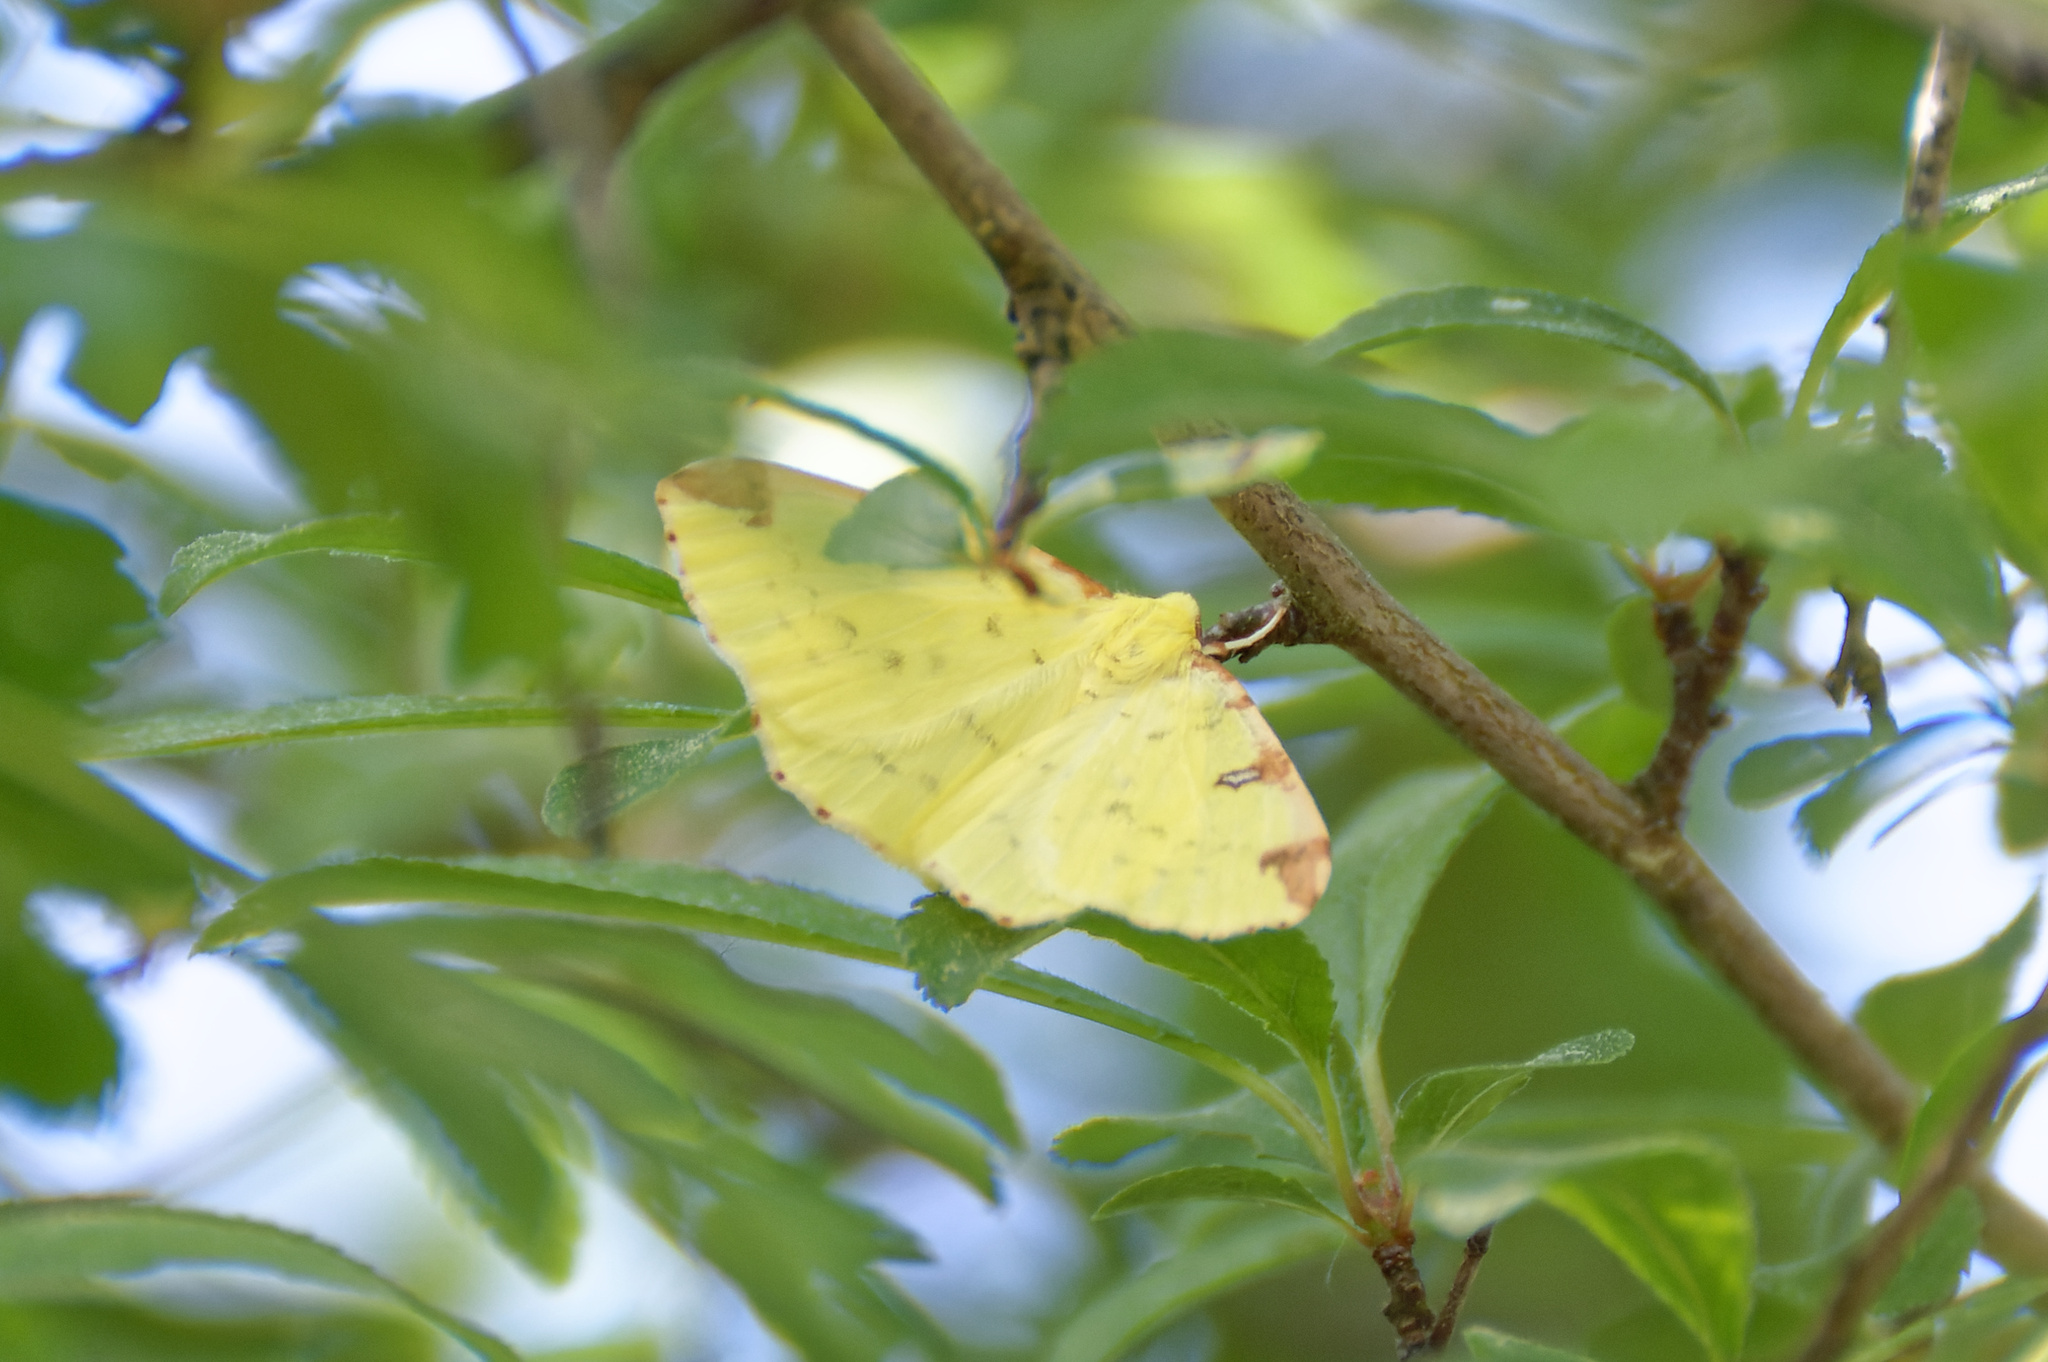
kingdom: Animalia
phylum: Arthropoda
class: Insecta
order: Lepidoptera
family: Geometridae
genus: Opisthograptis
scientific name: Opisthograptis luteolata
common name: Brimstone moth
